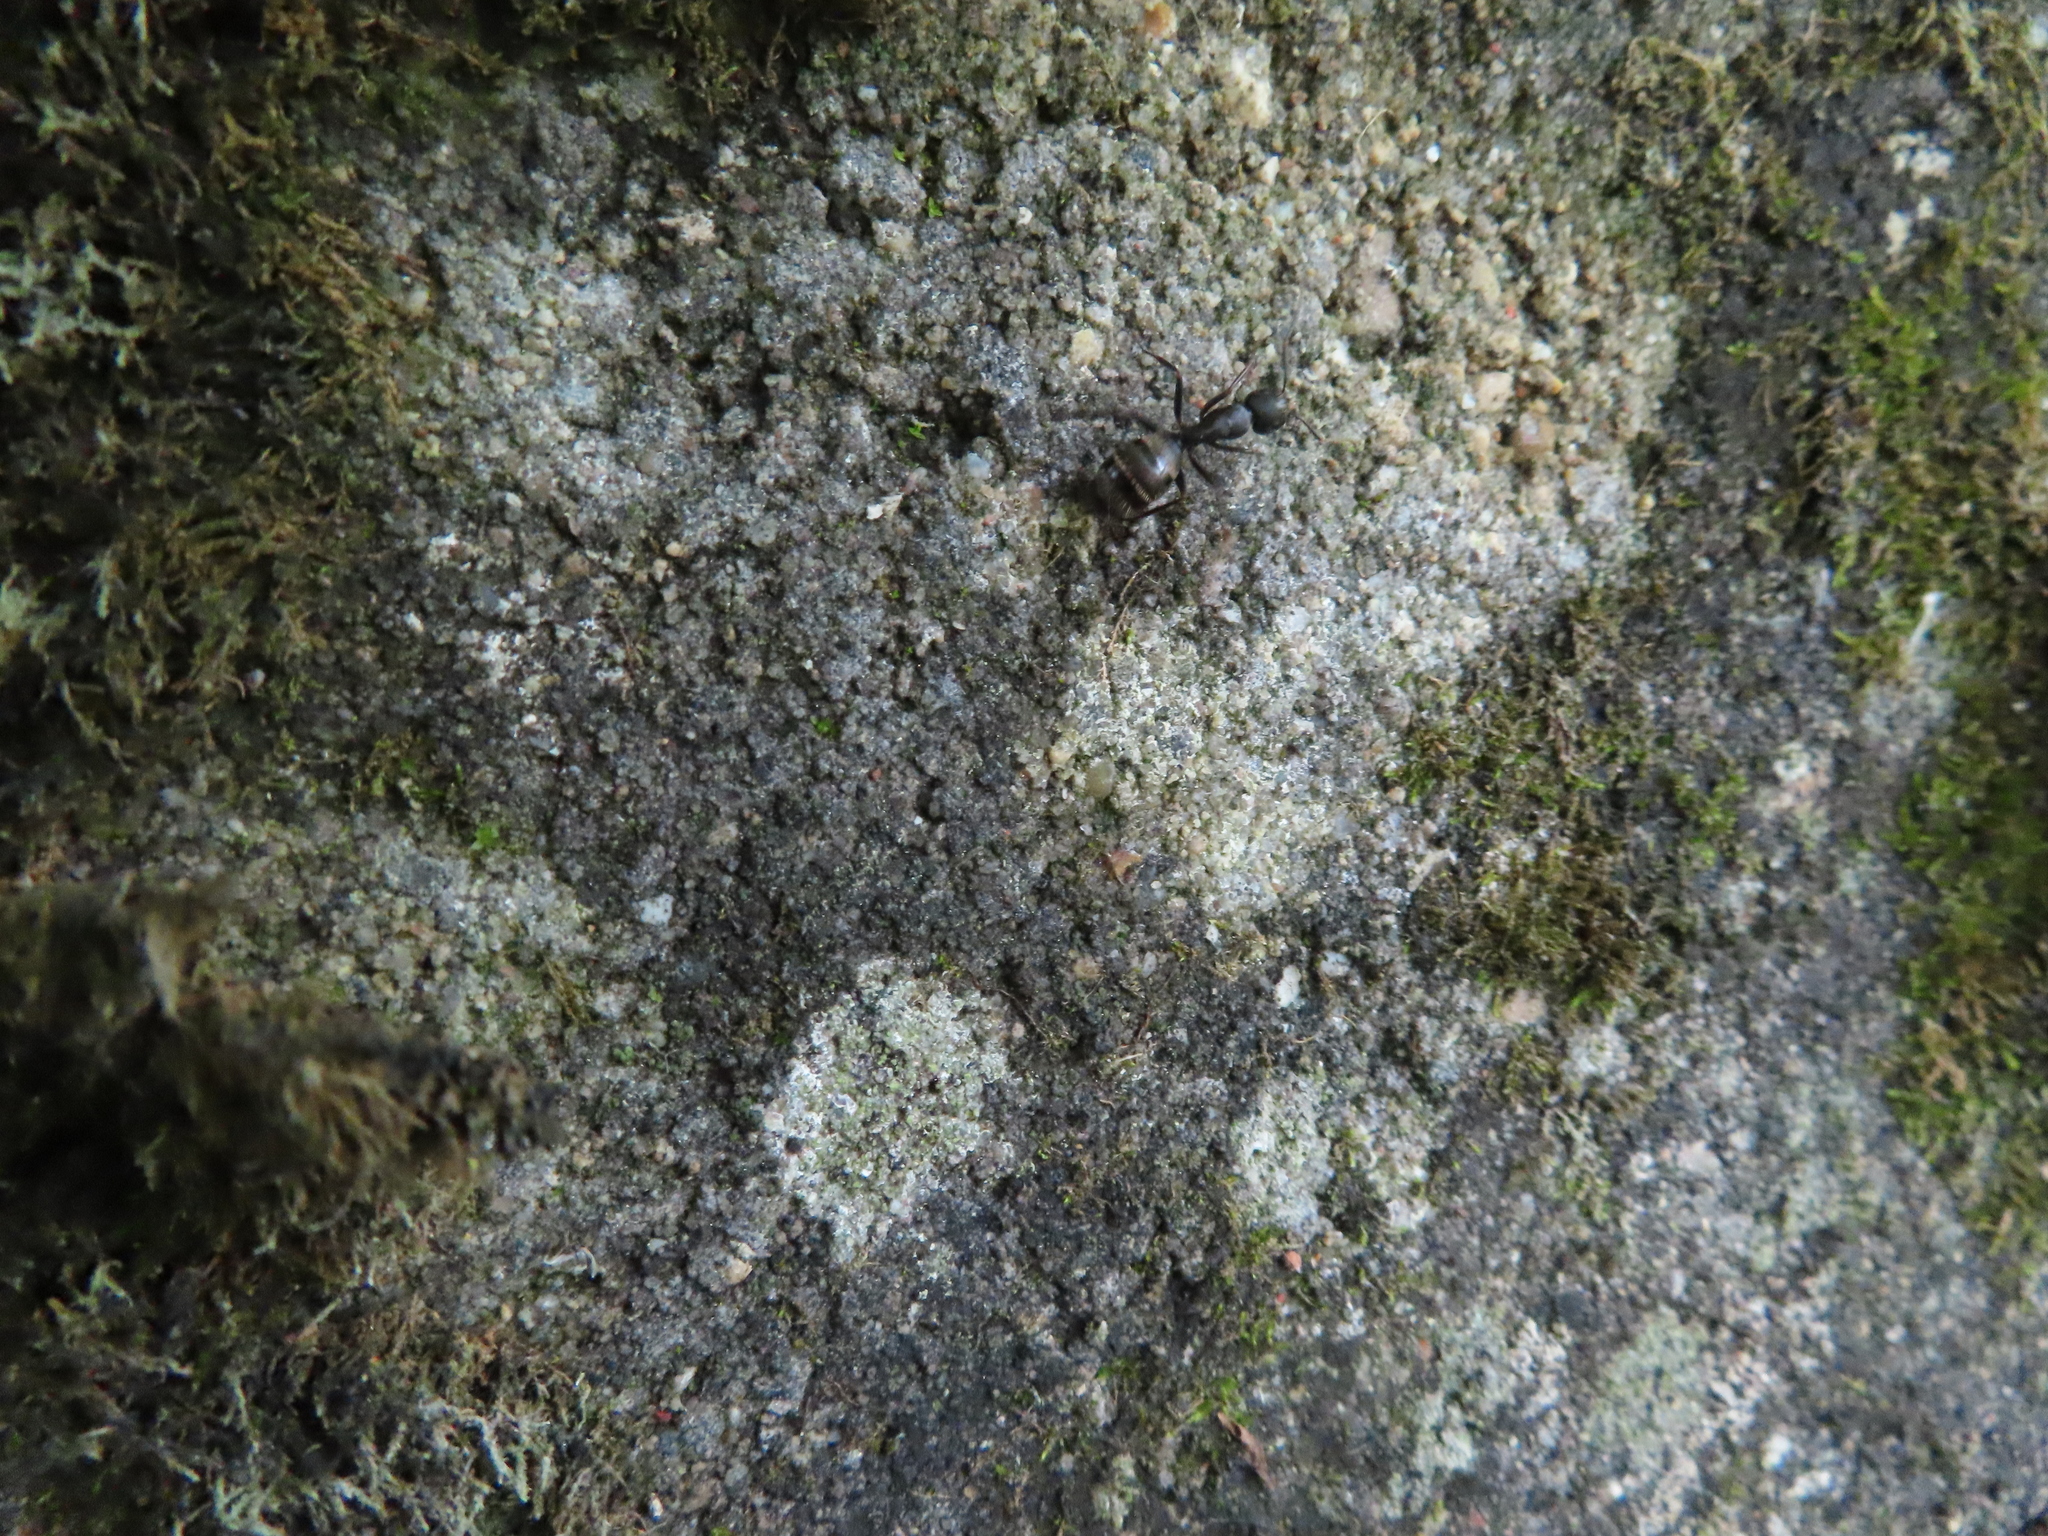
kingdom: Animalia
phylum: Arthropoda
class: Insecta
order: Hymenoptera
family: Formicidae
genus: Camponotus
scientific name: Camponotus pennsylvanicus
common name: Black carpenter ant
